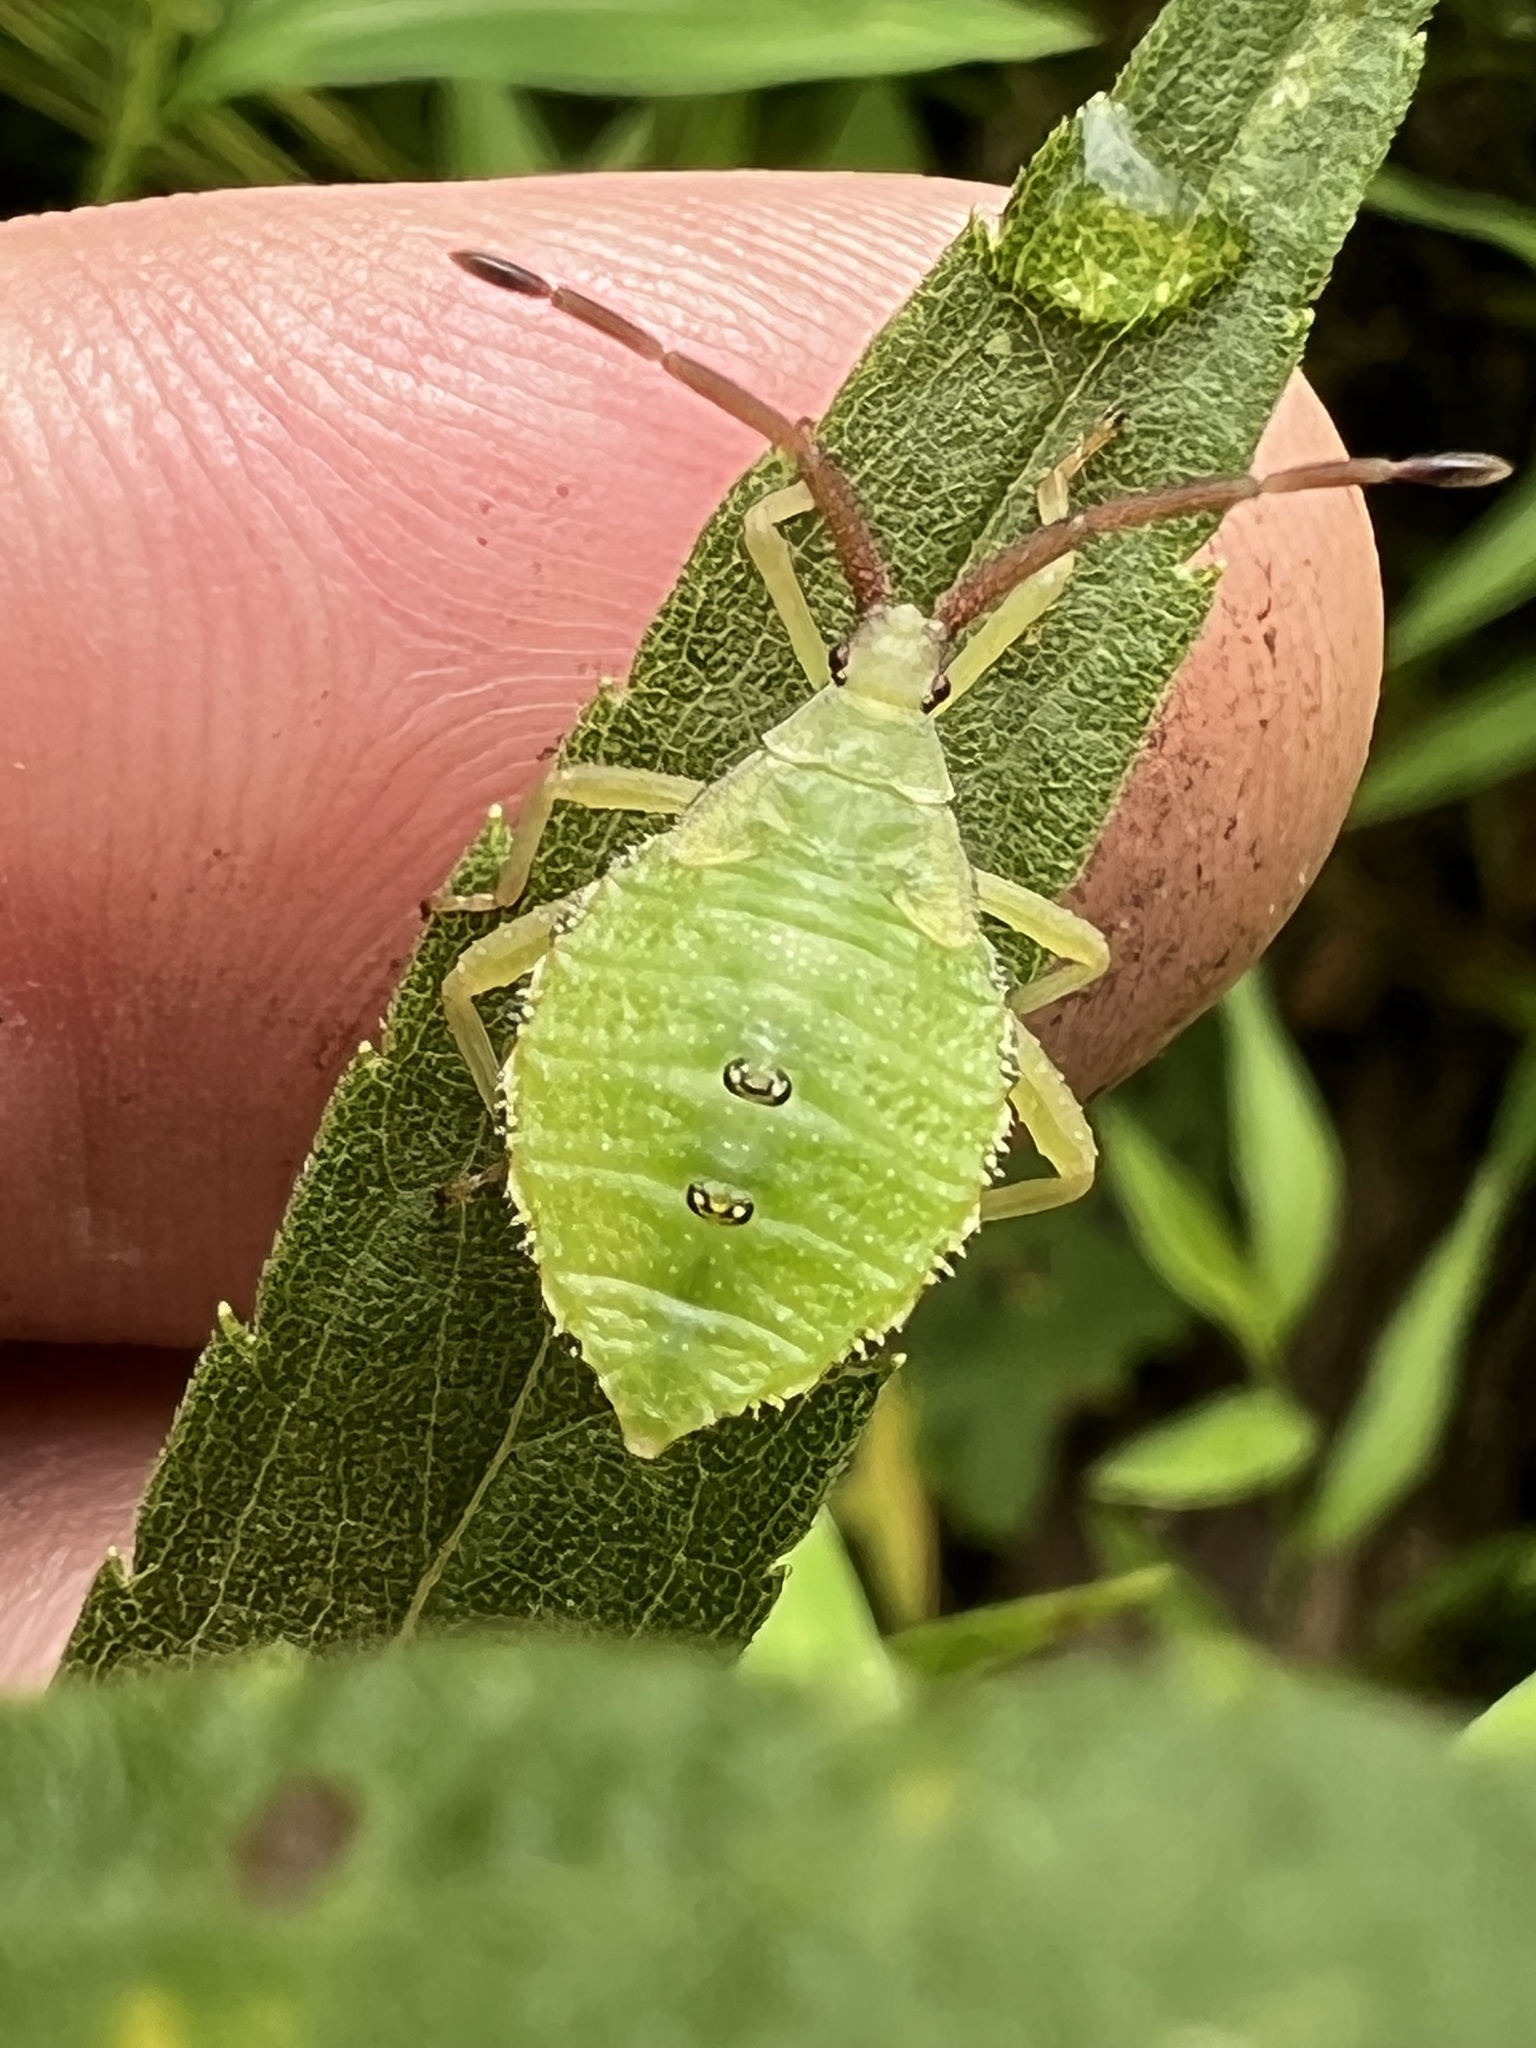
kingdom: Animalia
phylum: Arthropoda
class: Insecta
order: Hemiptera
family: Coreidae
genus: Piezogaster
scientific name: Piezogaster calcarator
